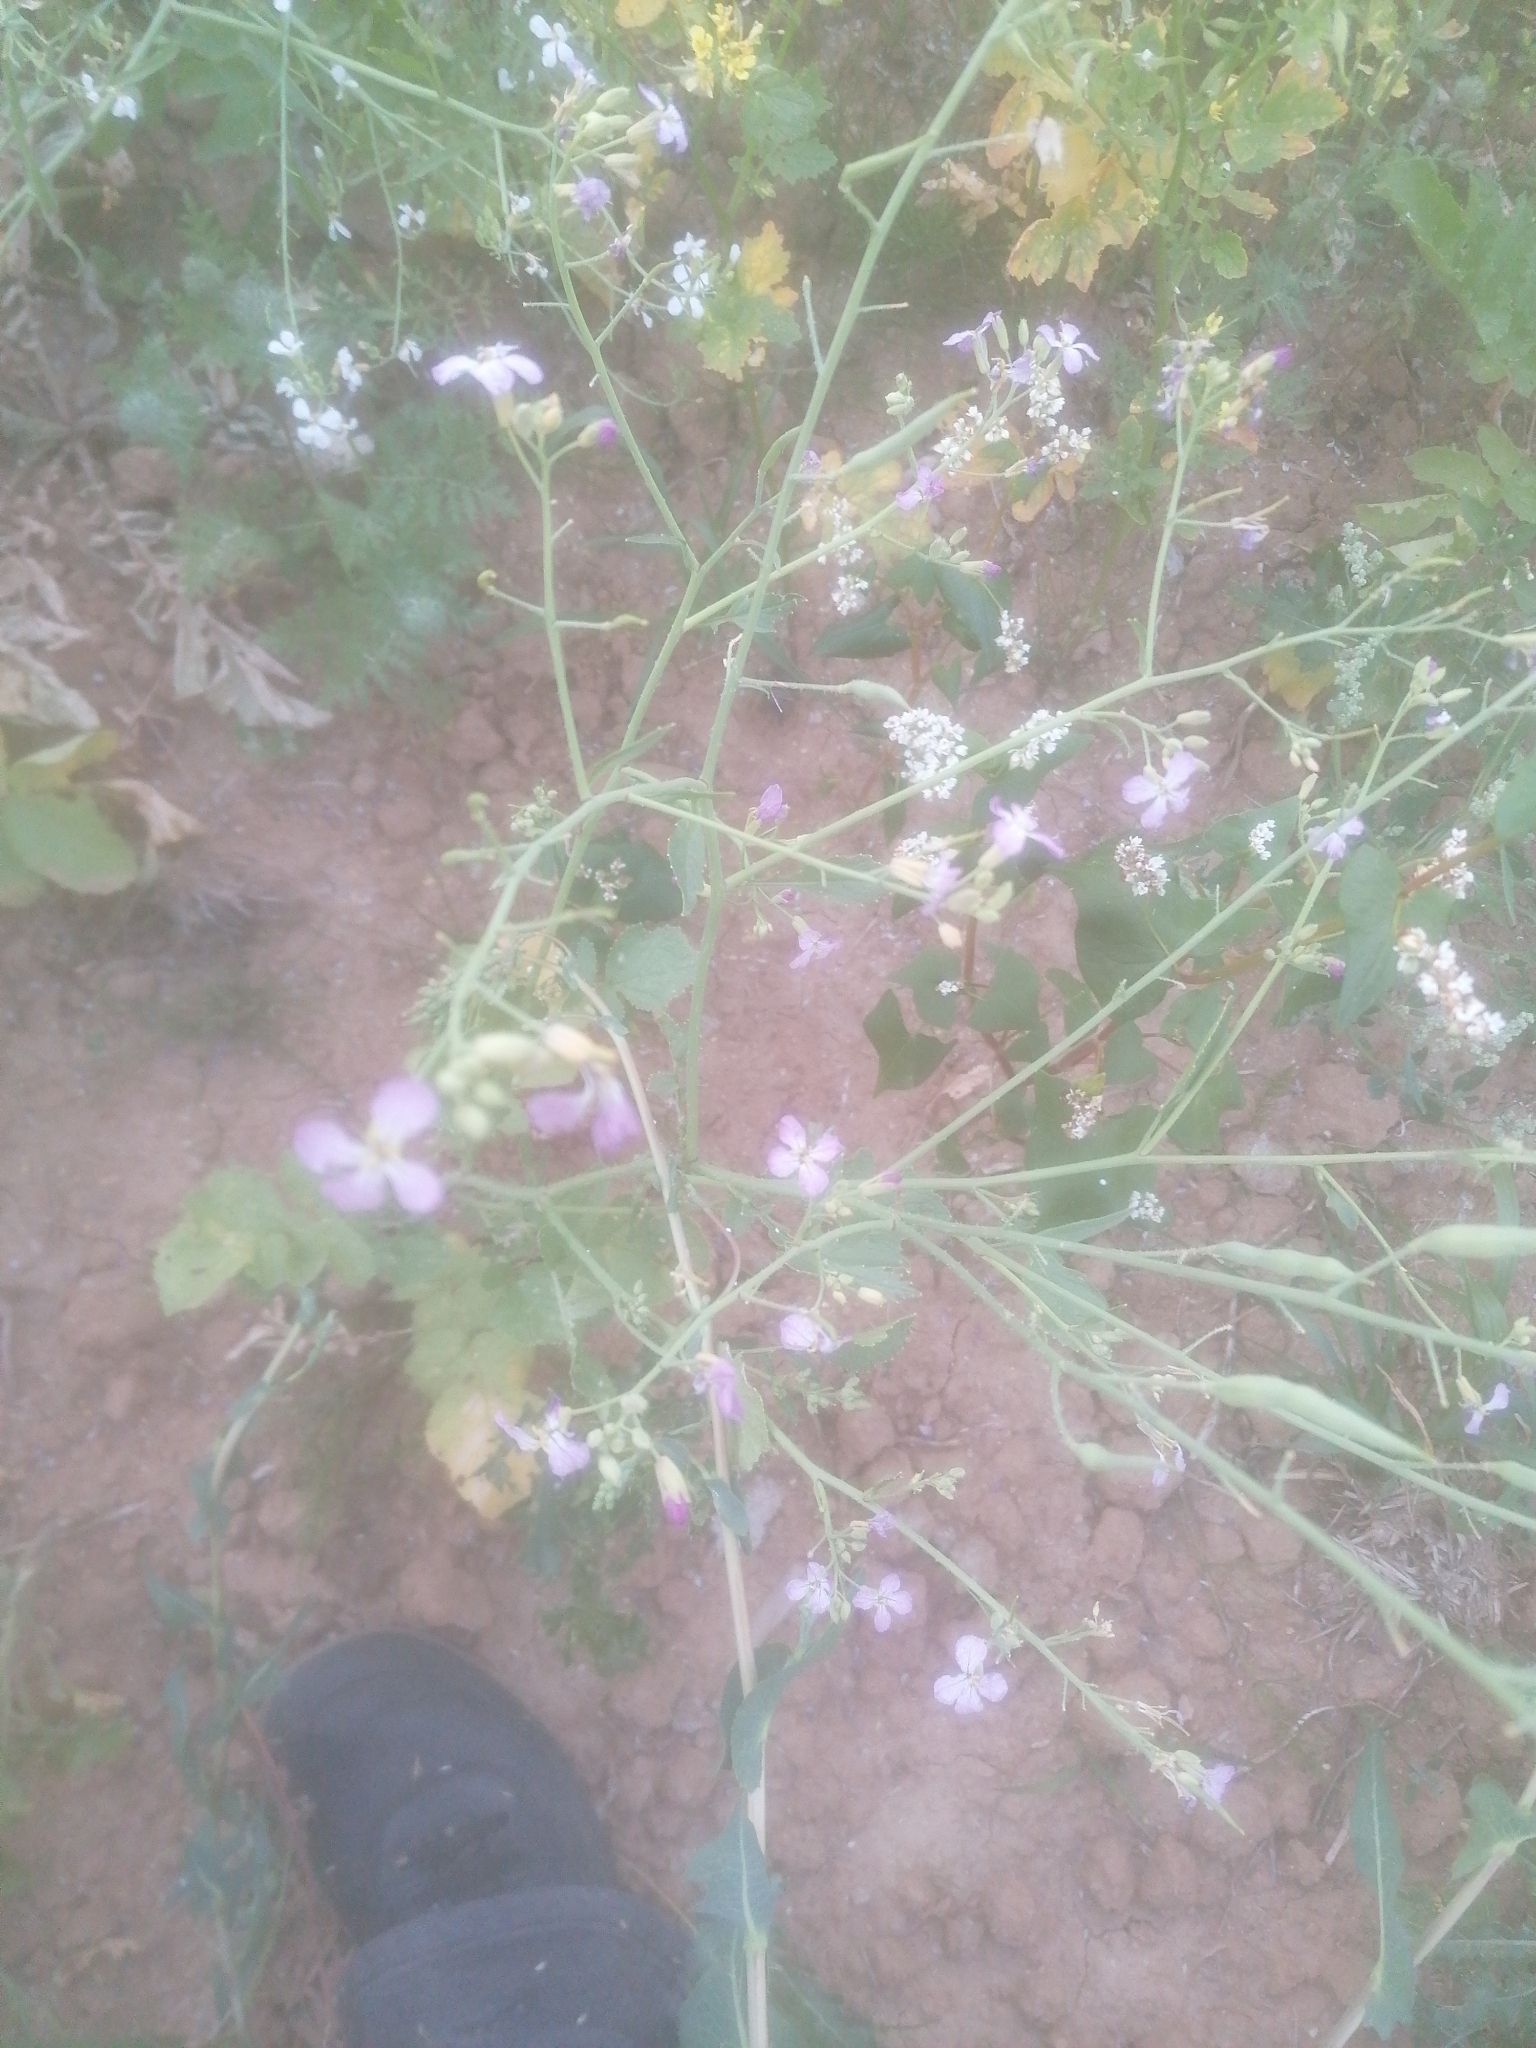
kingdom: Plantae
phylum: Tracheophyta
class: Magnoliopsida
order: Brassicales
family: Brassicaceae
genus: Raphanus
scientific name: Raphanus sativus
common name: Cultivated radish
